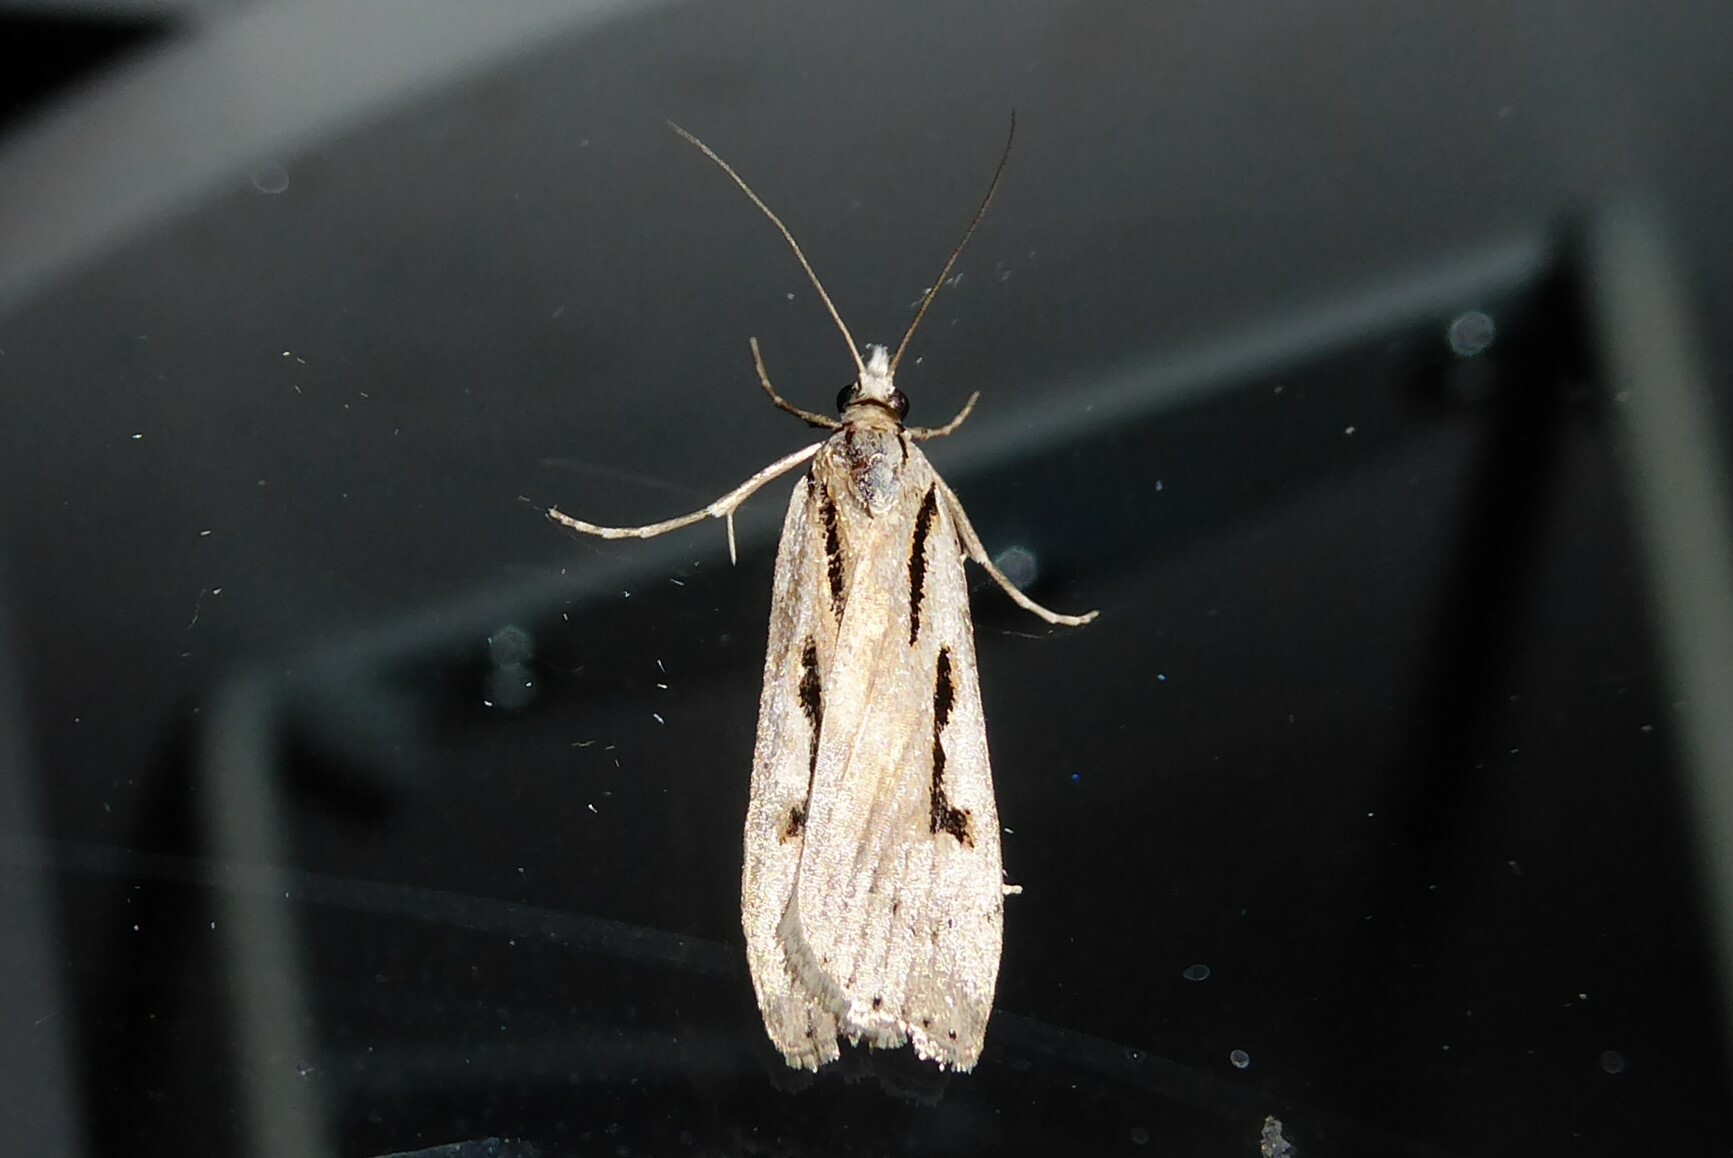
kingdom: Animalia
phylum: Arthropoda
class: Insecta
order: Lepidoptera
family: Crambidae
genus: Scoparia
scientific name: Scoparia rotuellus
